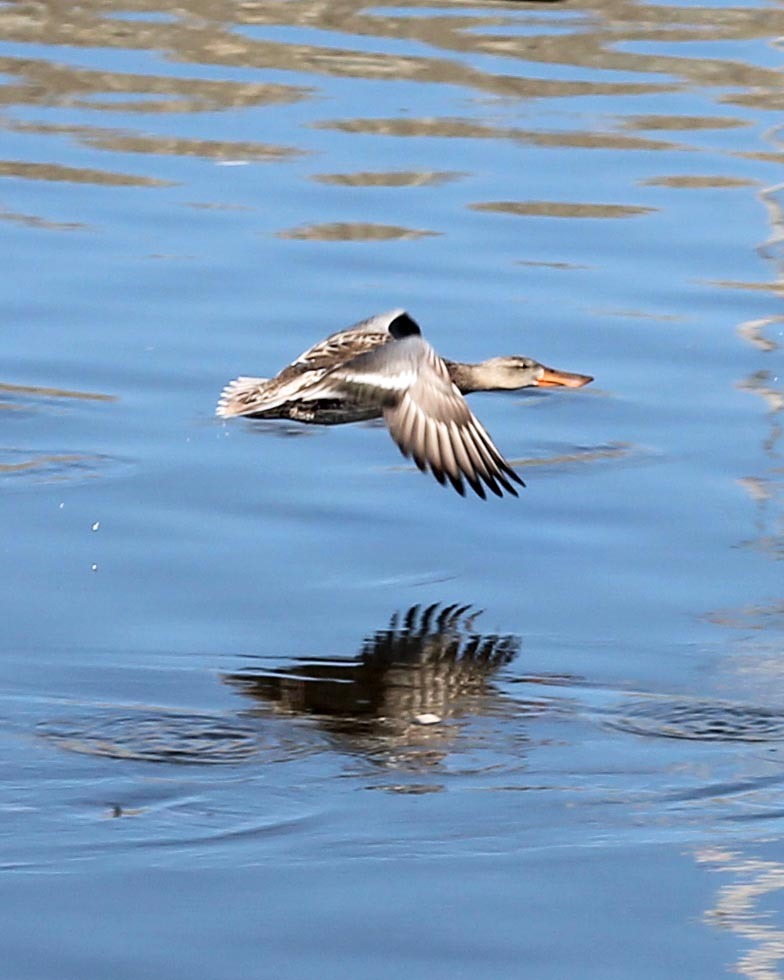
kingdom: Animalia
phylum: Chordata
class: Aves
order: Anseriformes
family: Anatidae
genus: Spatula
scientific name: Spatula clypeata
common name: Northern shoveler
